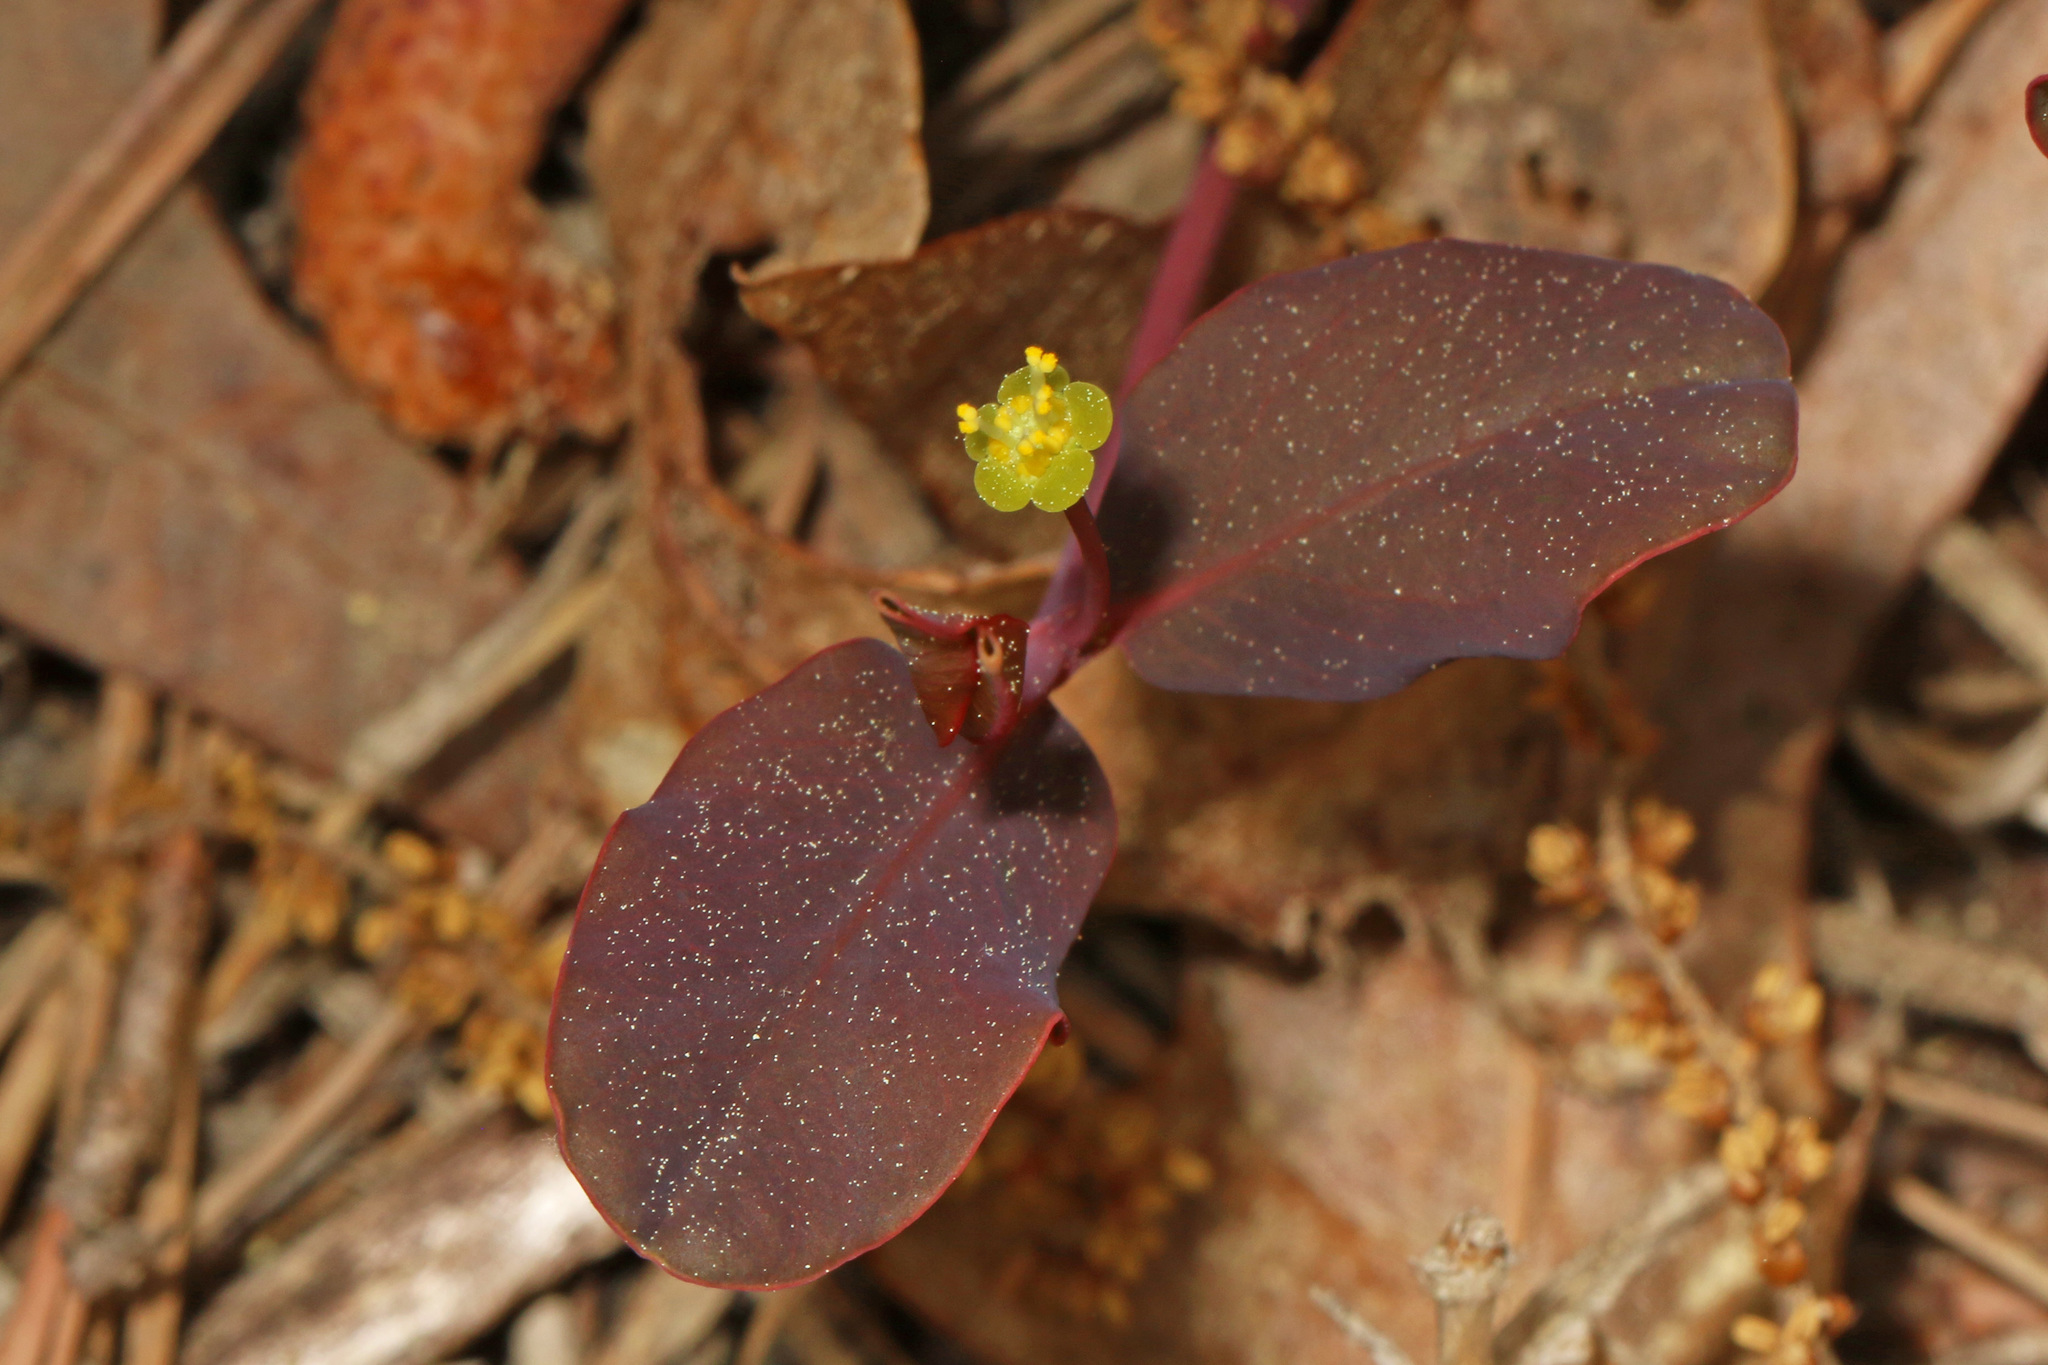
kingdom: Plantae
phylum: Tracheophyta
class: Magnoliopsida
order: Malpighiales
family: Euphorbiaceae
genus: Euphorbia
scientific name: Euphorbia ipecacuanhae
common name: Carolina ipecac
